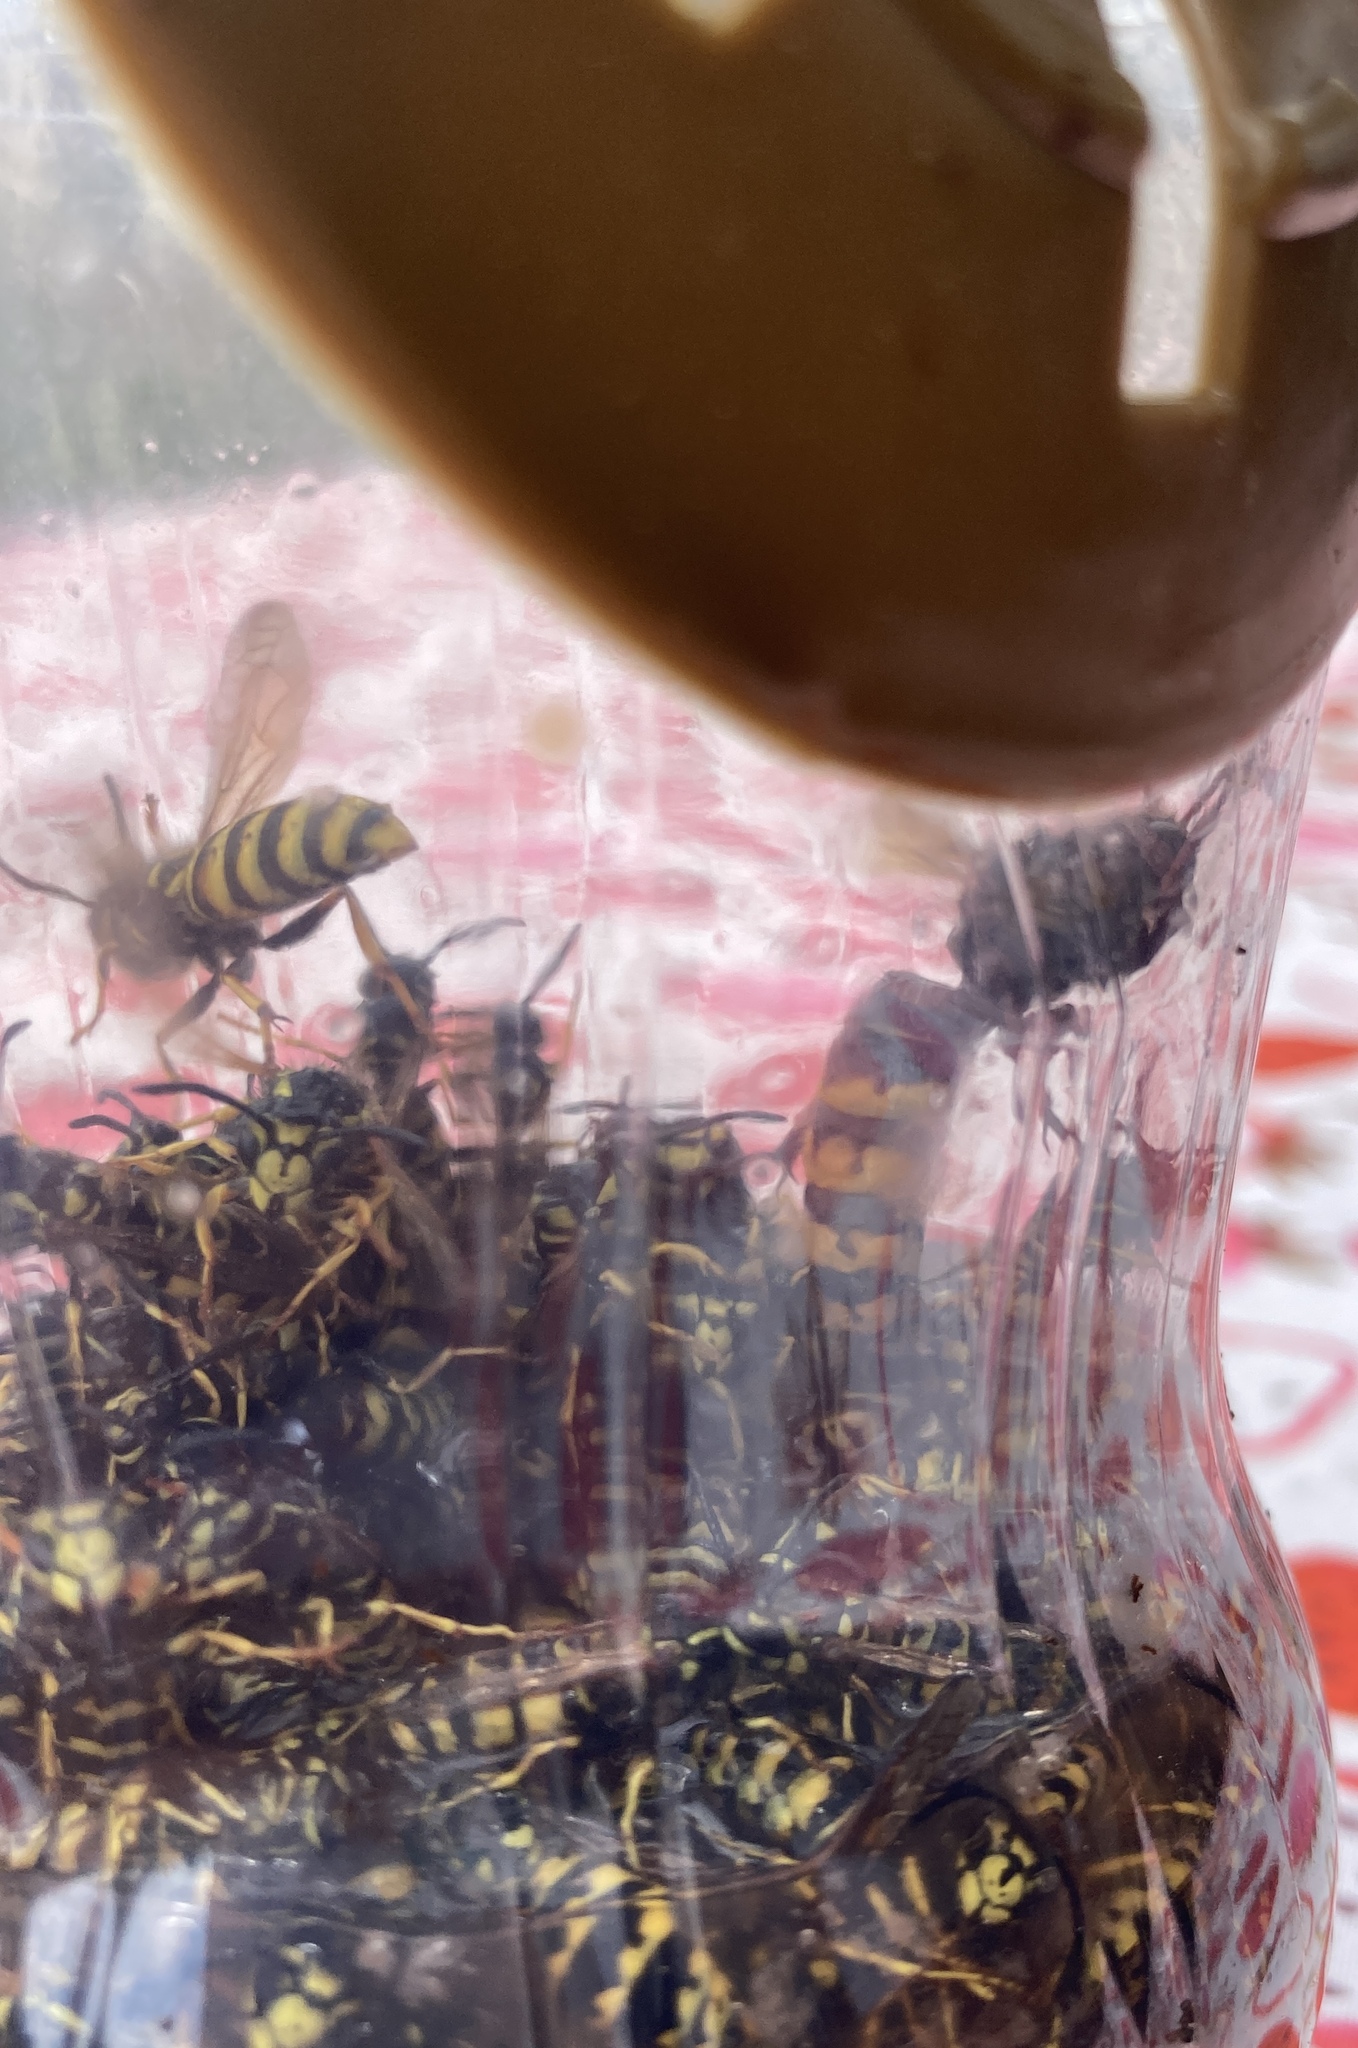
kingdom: Animalia
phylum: Arthropoda
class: Insecta
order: Hymenoptera
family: Vespidae
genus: Vespa
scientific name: Vespa crabro
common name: Hornet
